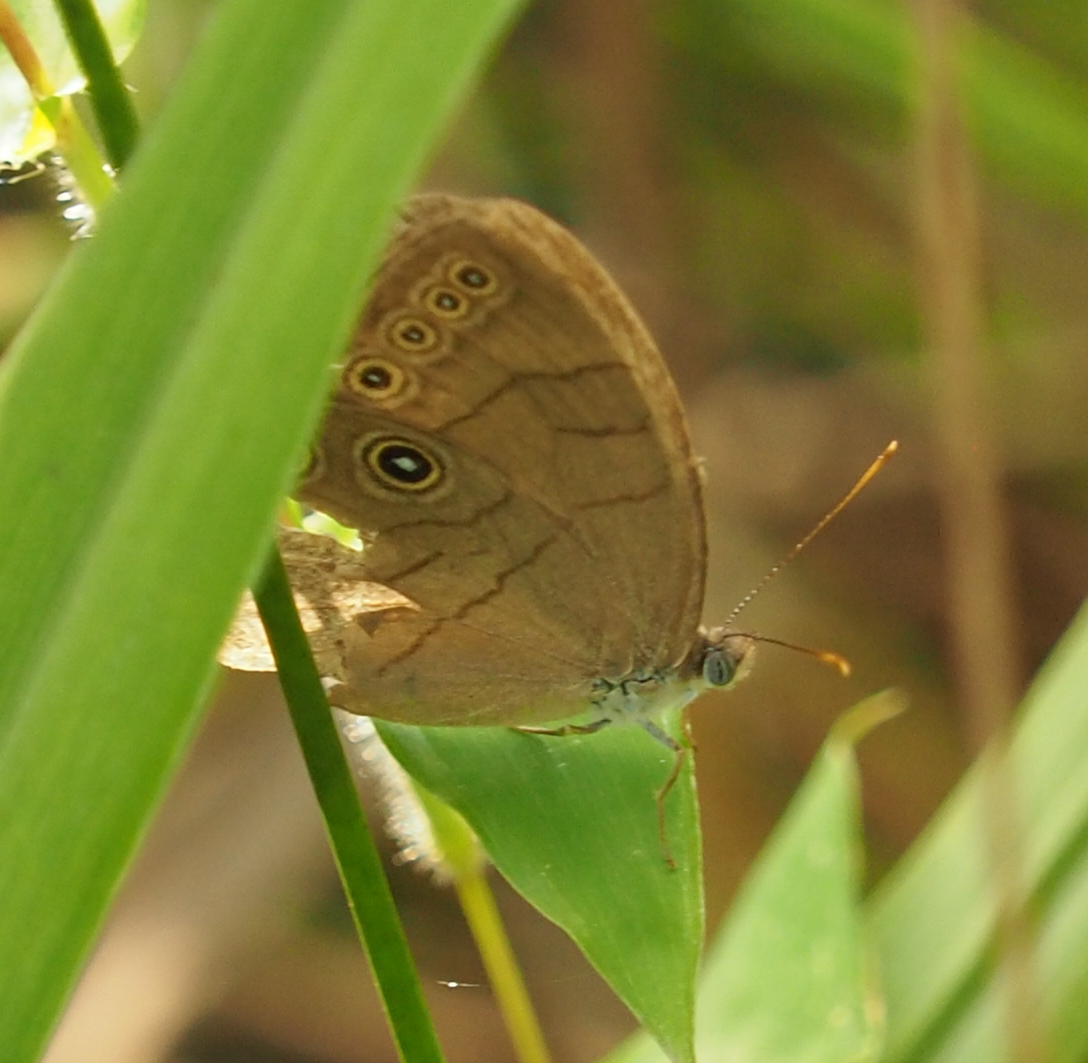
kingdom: Animalia
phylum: Arthropoda
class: Insecta
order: Lepidoptera
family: Nymphalidae
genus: Lethe
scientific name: Lethe eurydice
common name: Eyed brown
